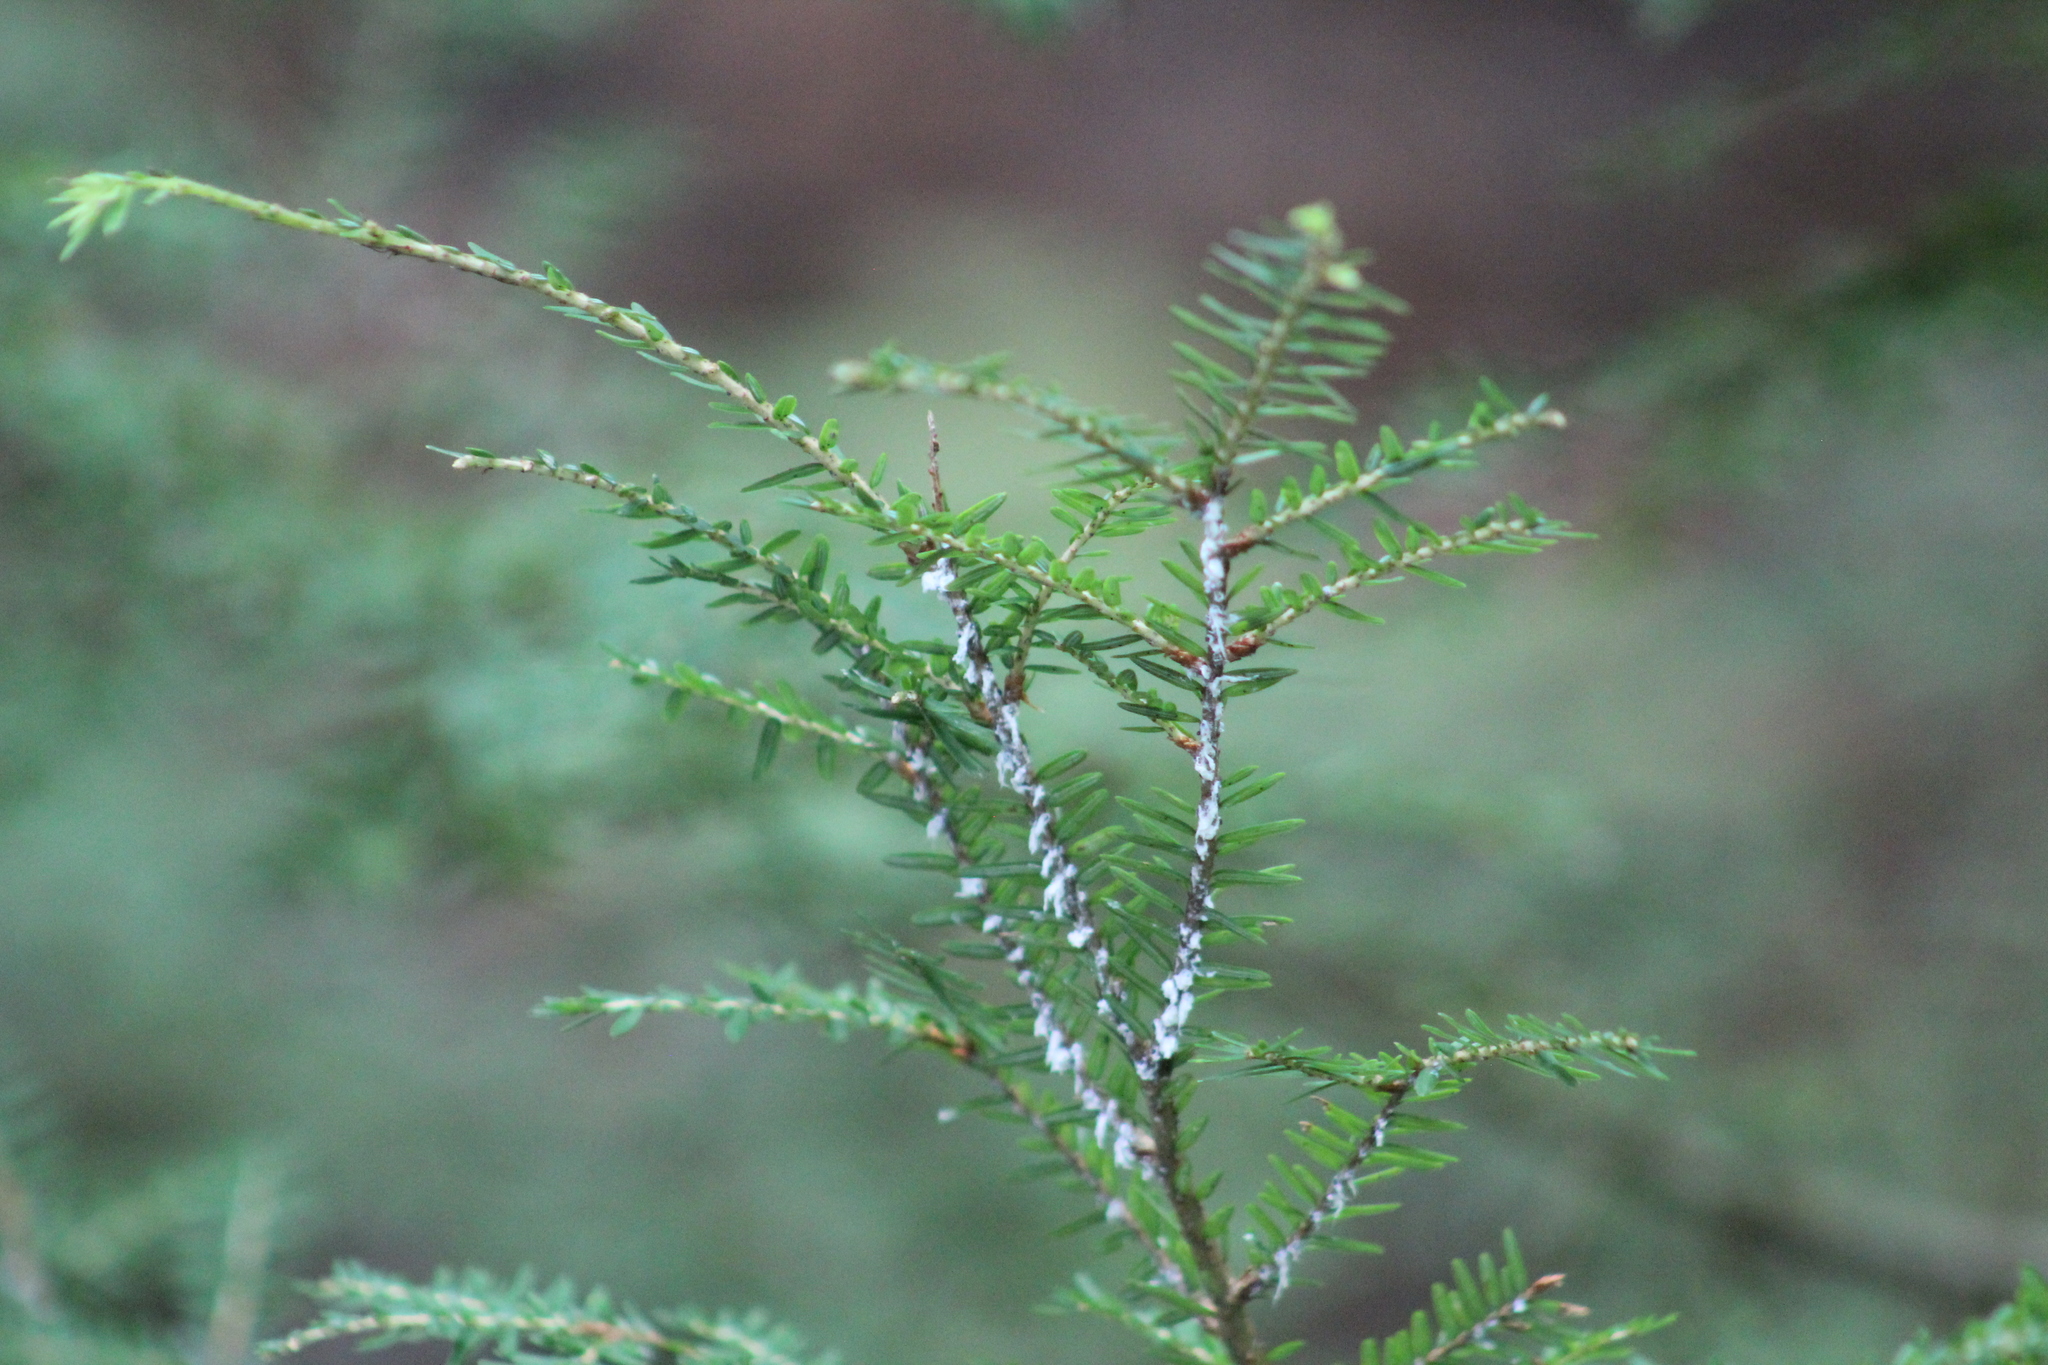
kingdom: Plantae
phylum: Tracheophyta
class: Pinopsida
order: Pinales
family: Pinaceae
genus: Tsuga
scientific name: Tsuga canadensis
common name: Eastern hemlock
